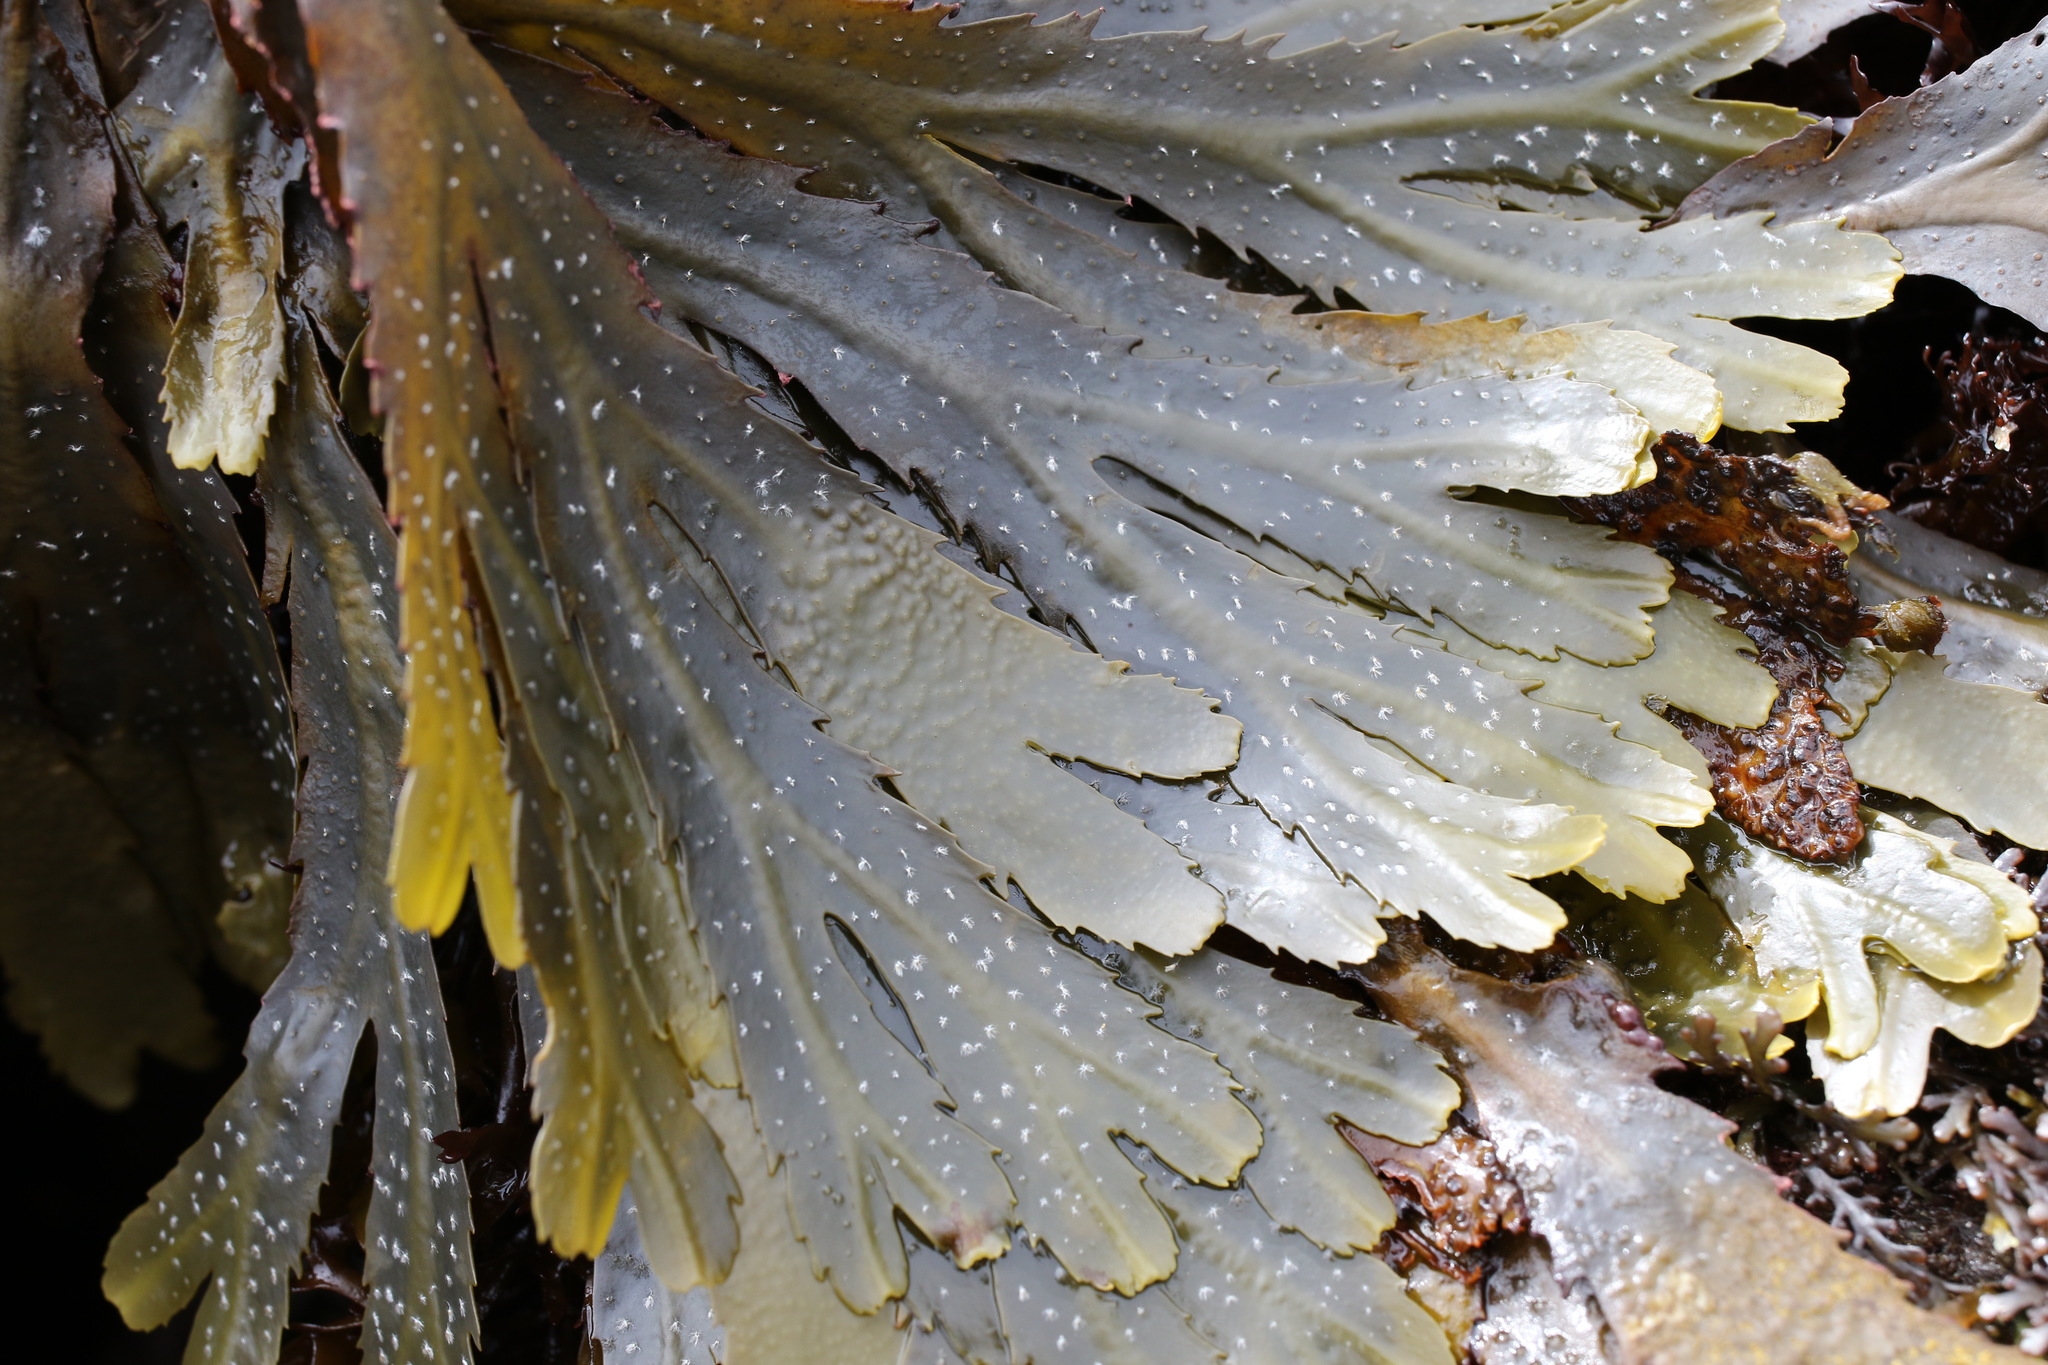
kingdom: Chromista
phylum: Ochrophyta
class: Phaeophyceae
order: Fucales
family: Fucaceae
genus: Fucus
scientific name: Fucus serratus
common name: Toothed wrack
